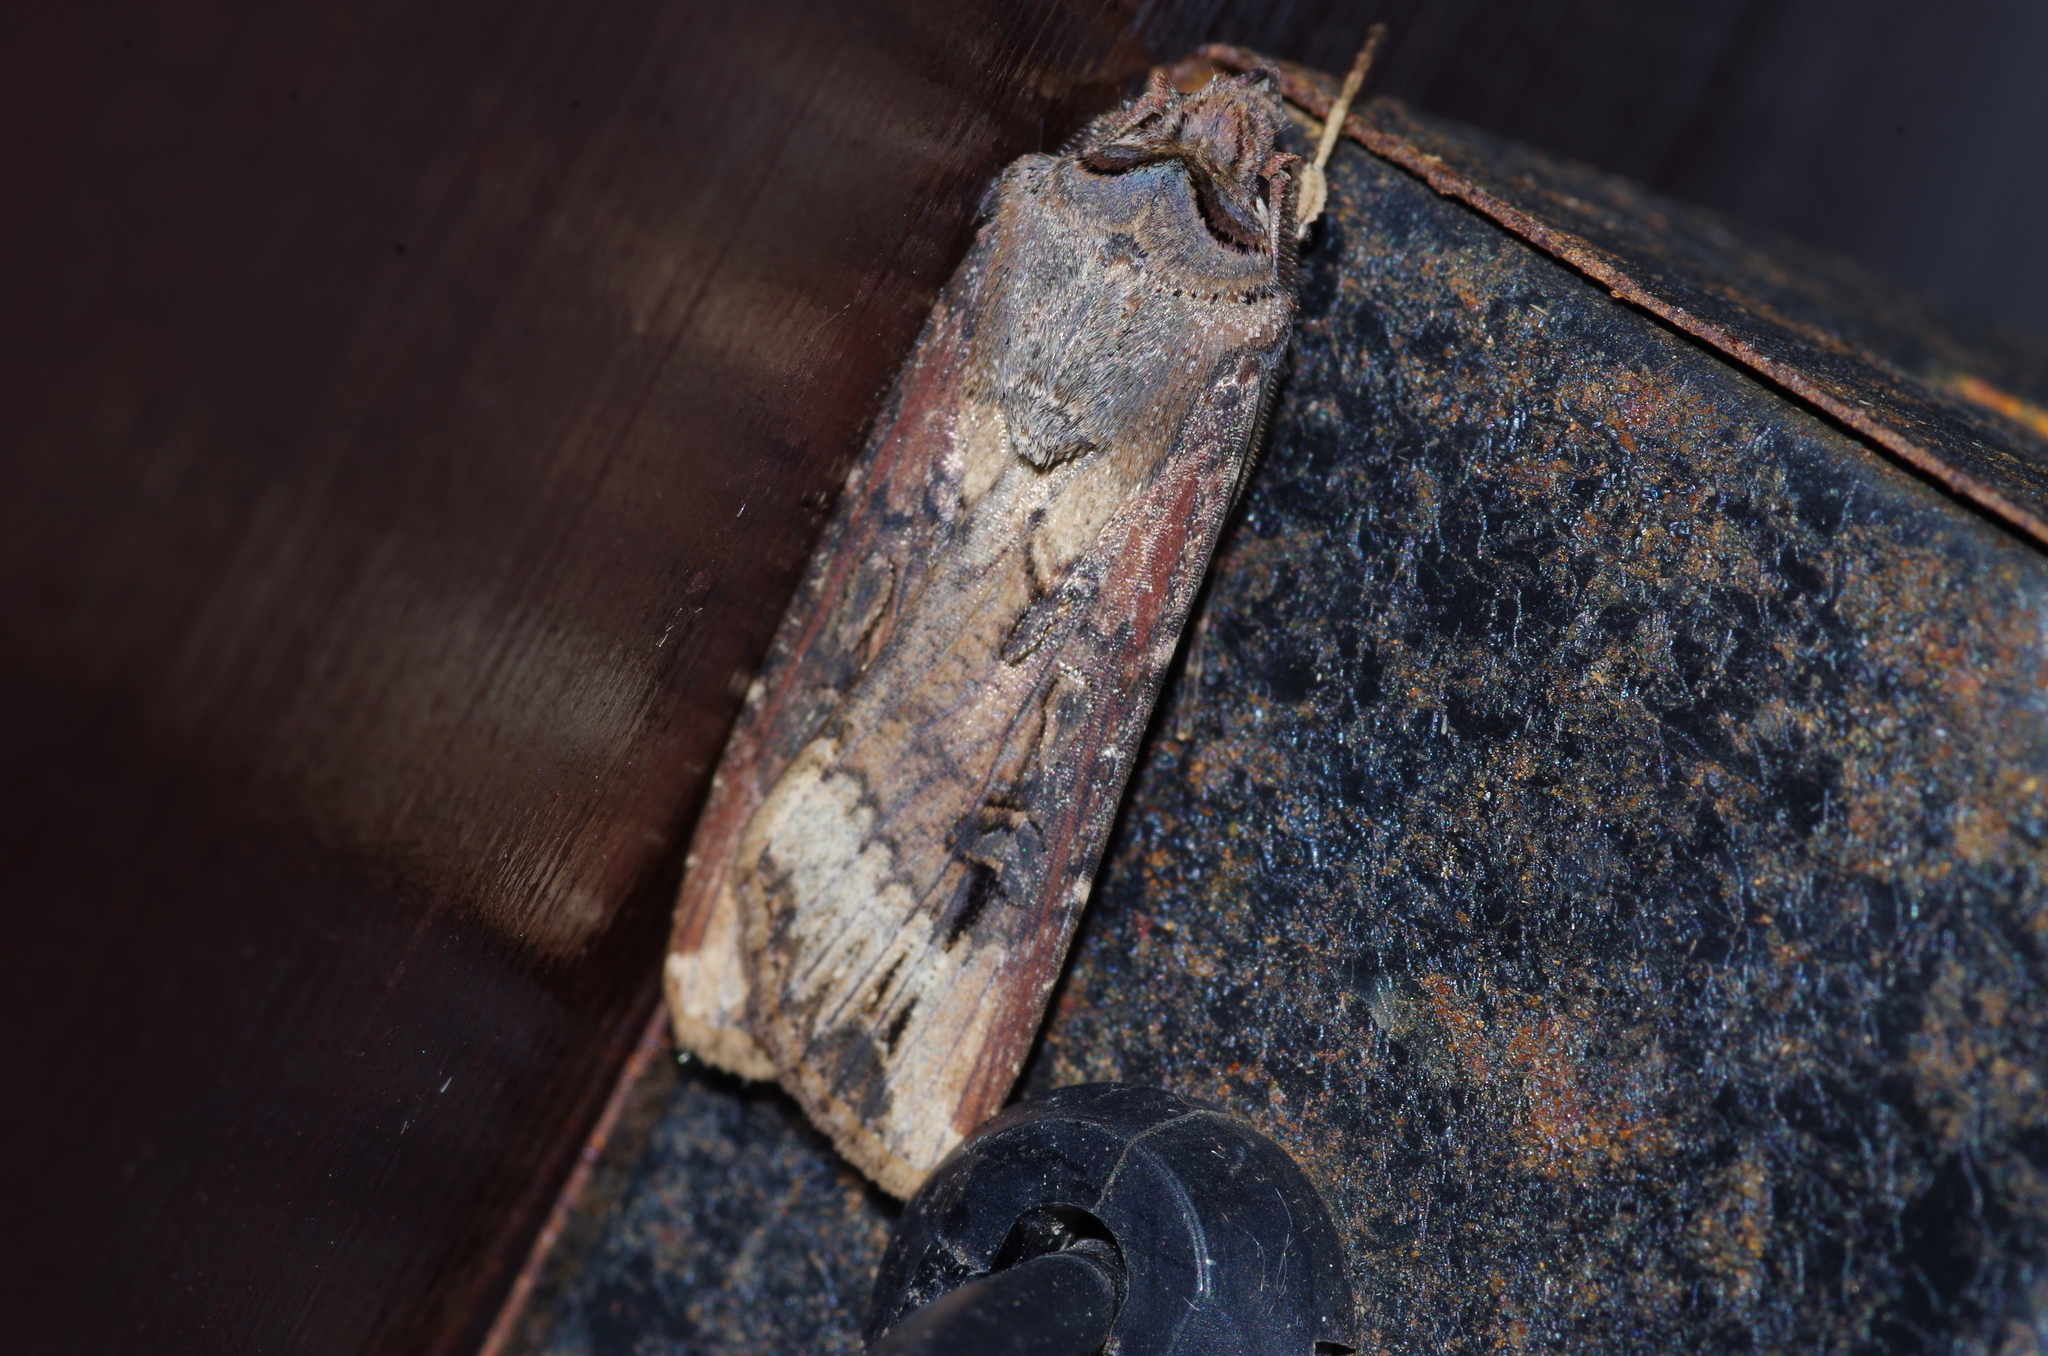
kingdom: Animalia
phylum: Arthropoda
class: Insecta
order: Lepidoptera
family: Noctuidae
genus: Agrotis
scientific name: Agrotis ipsilon
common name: Dark sword-grass
